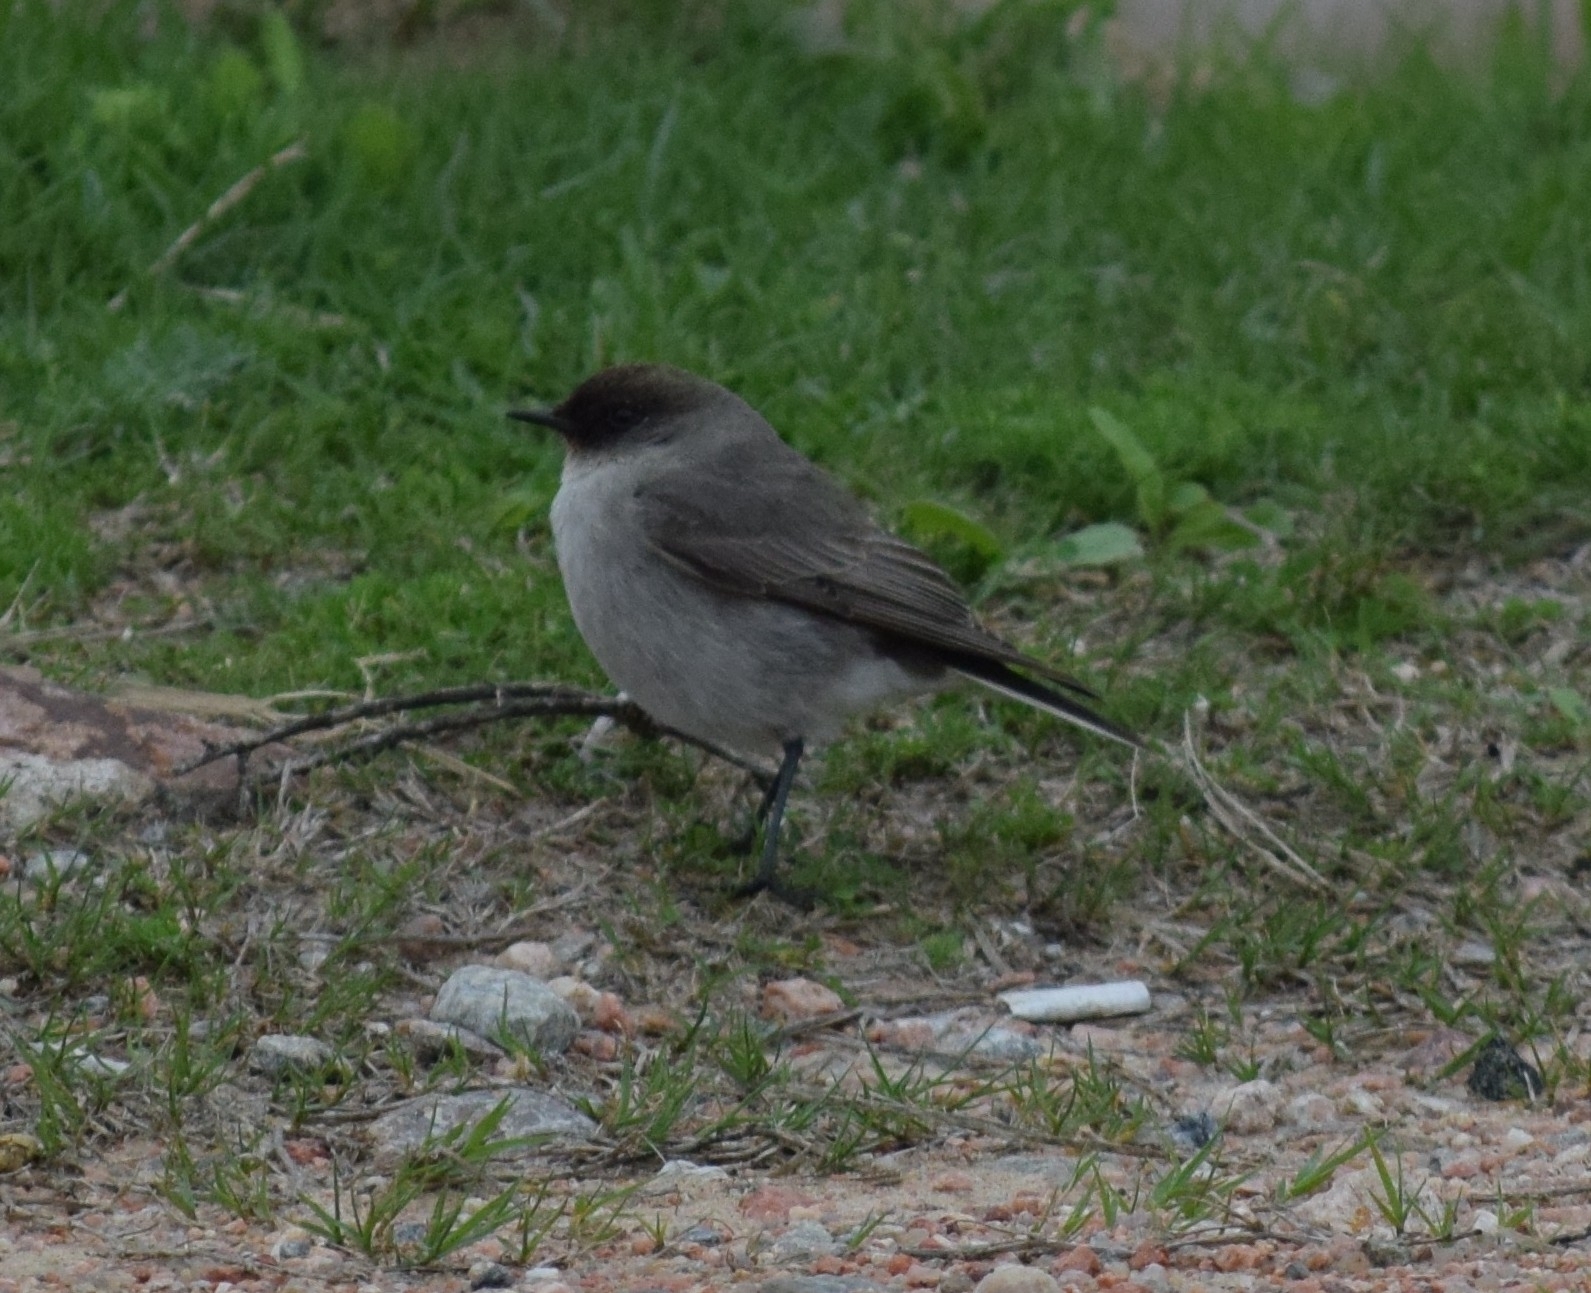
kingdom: Animalia
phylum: Chordata
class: Aves
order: Passeriformes
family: Tyrannidae
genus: Muscisaxicola
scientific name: Muscisaxicola maclovianus
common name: Dark-faced ground tyrant
